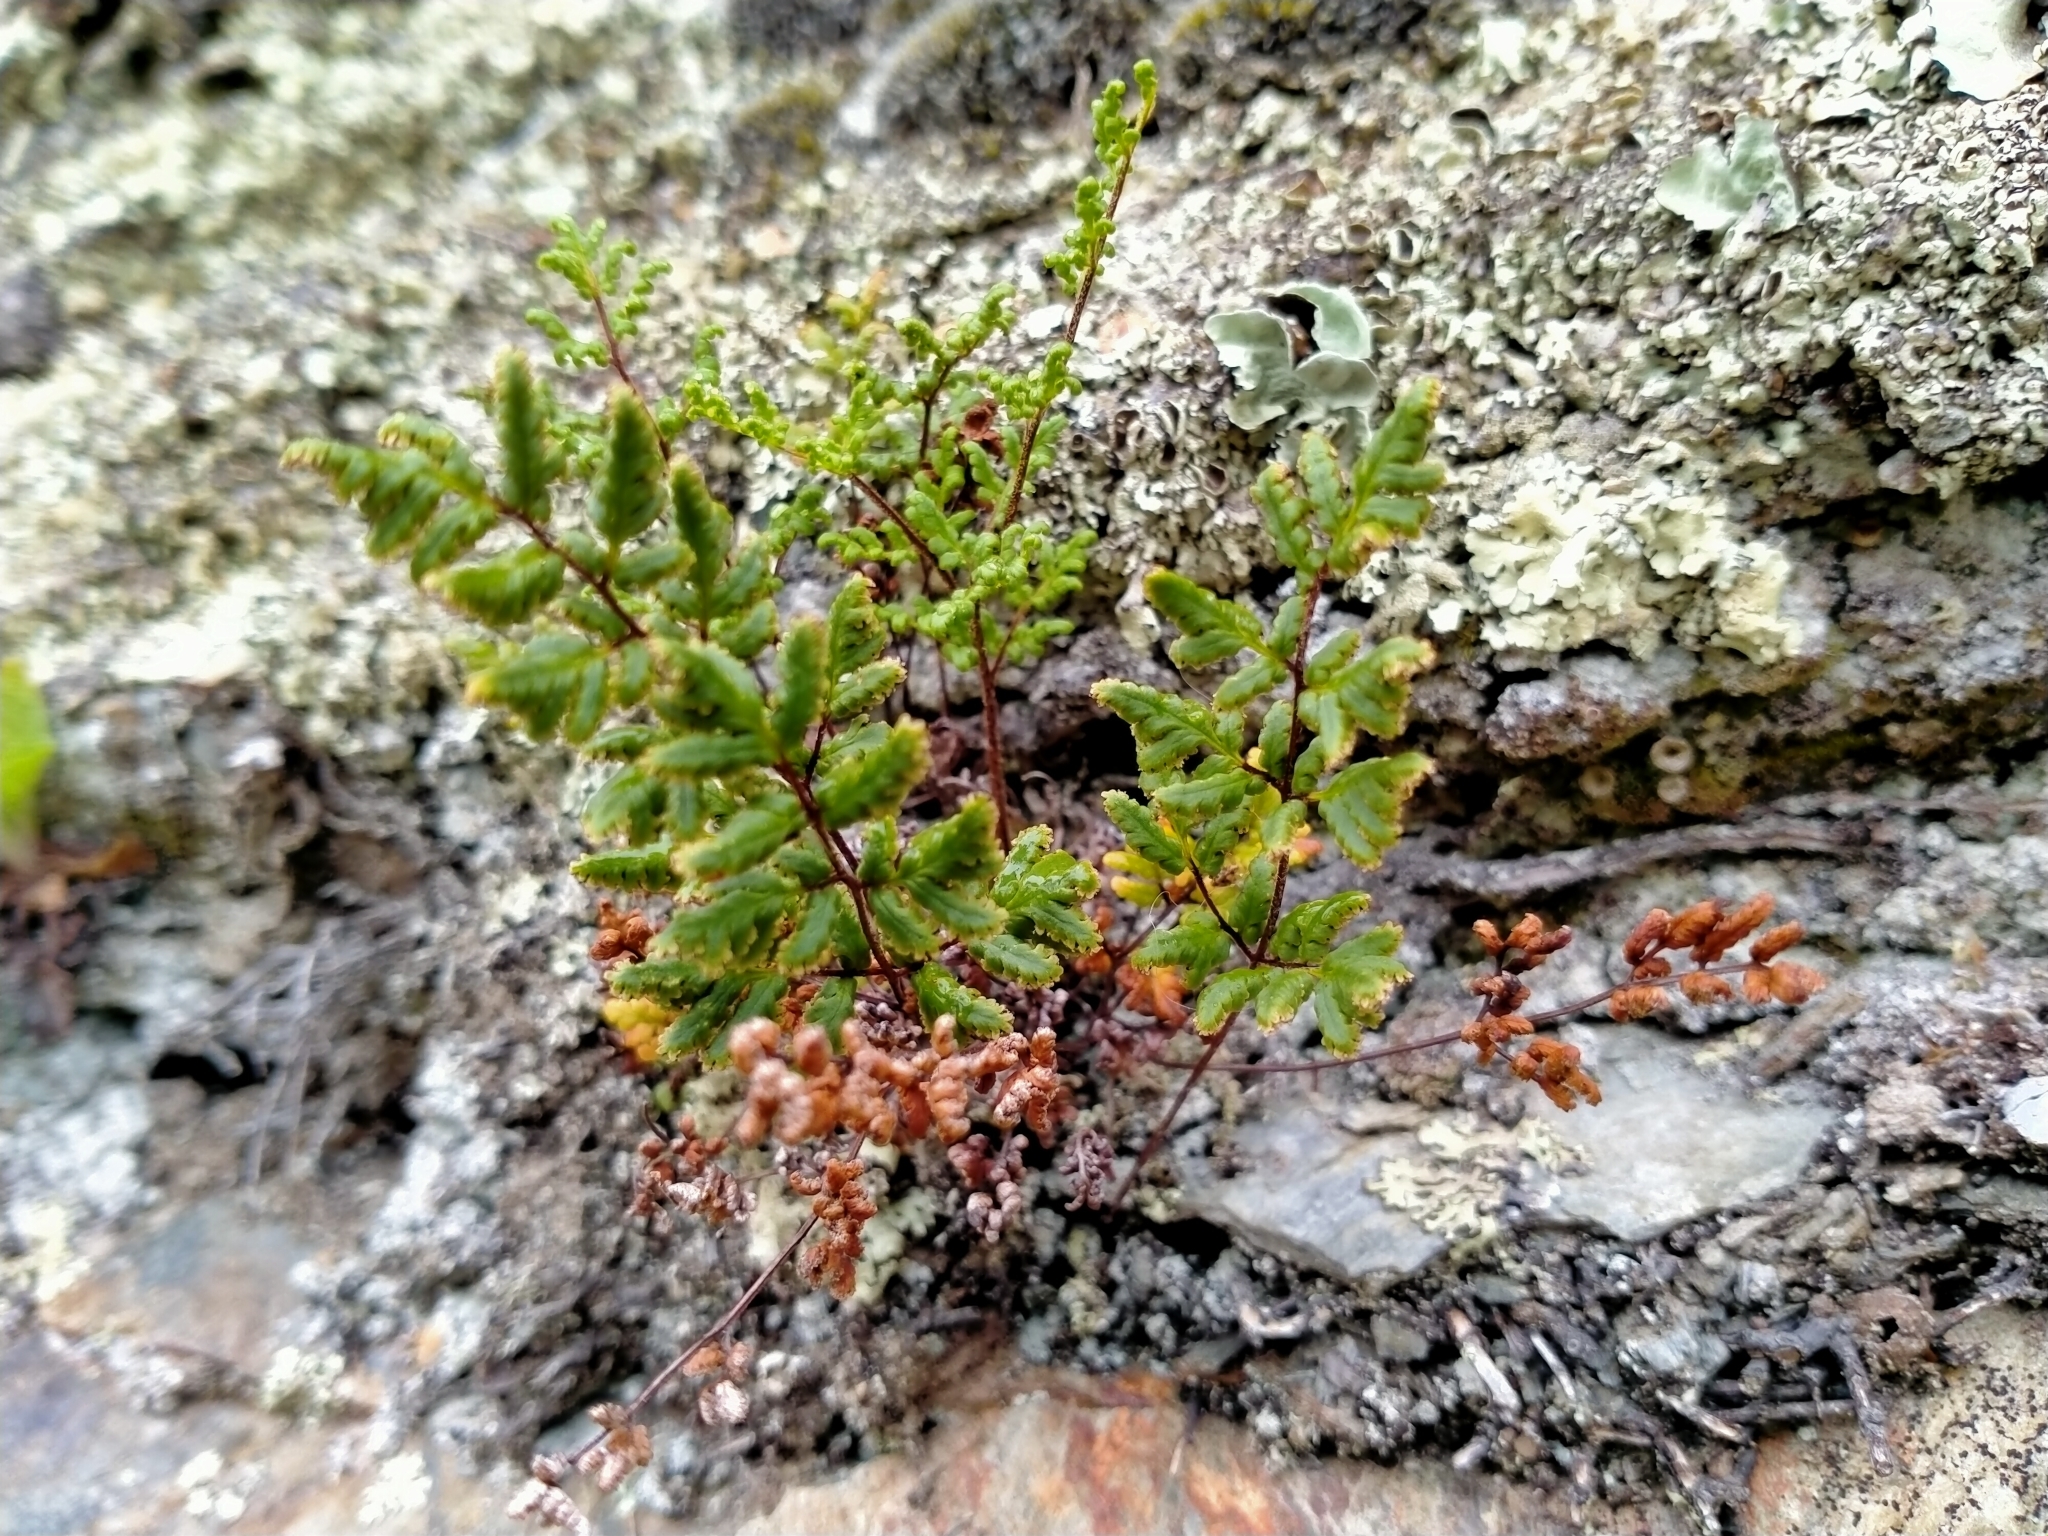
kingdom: Plantae
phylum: Tracheophyta
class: Polypodiopsida
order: Polypodiales
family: Pteridaceae
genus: Cheilanthes
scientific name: Cheilanthes sieberi
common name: Mulga fern
